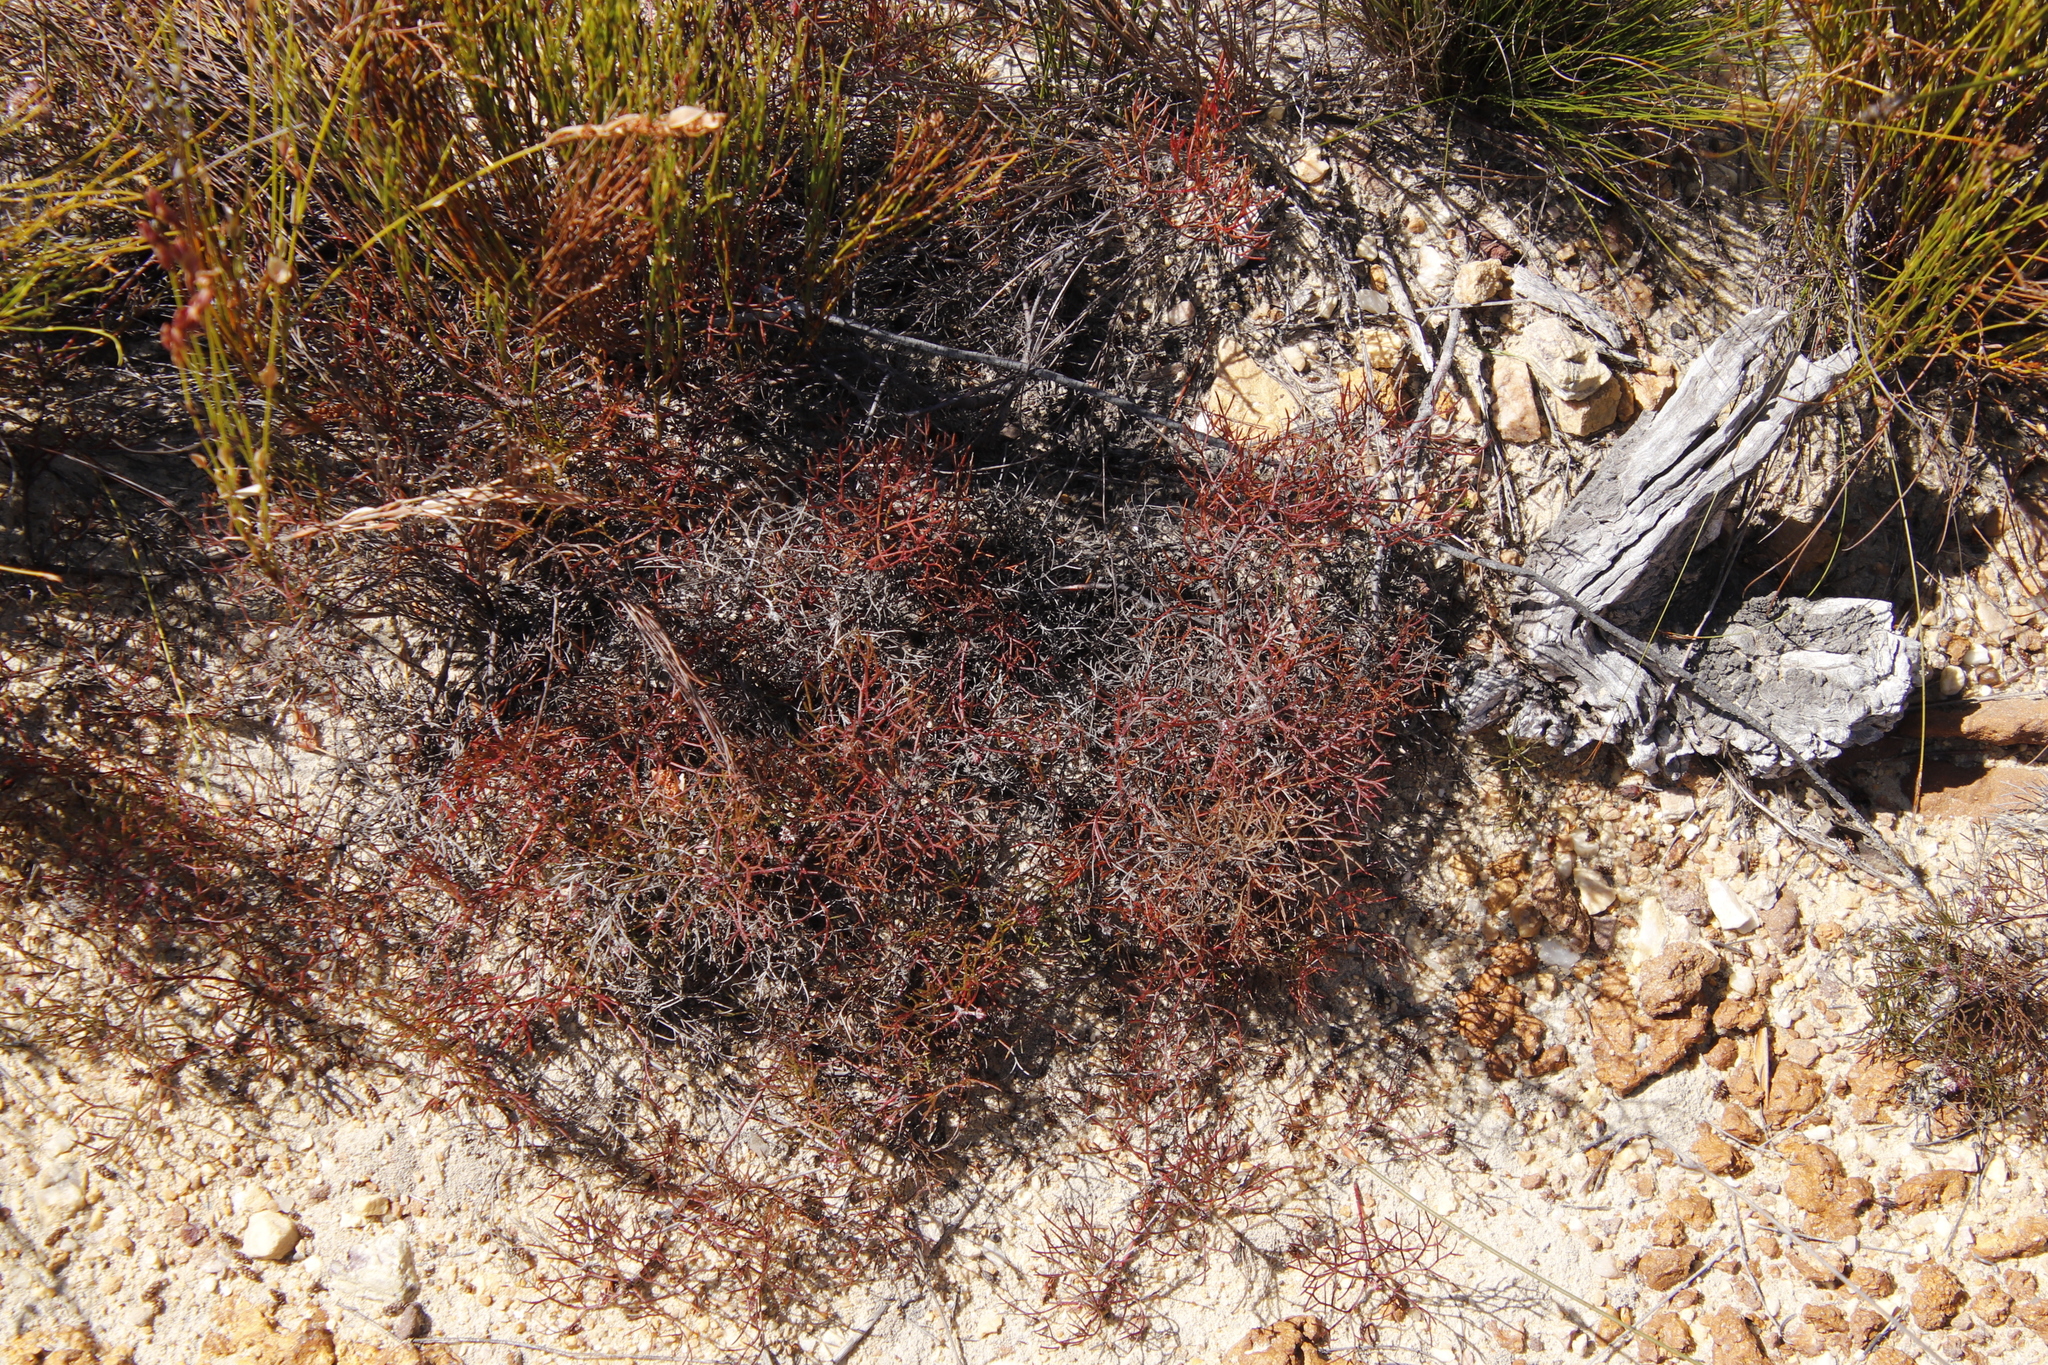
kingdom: Plantae
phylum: Tracheophyta
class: Magnoliopsida
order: Proteales
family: Proteaceae
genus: Serruria
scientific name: Serruria fasciflora
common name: Common pin spiderhead
